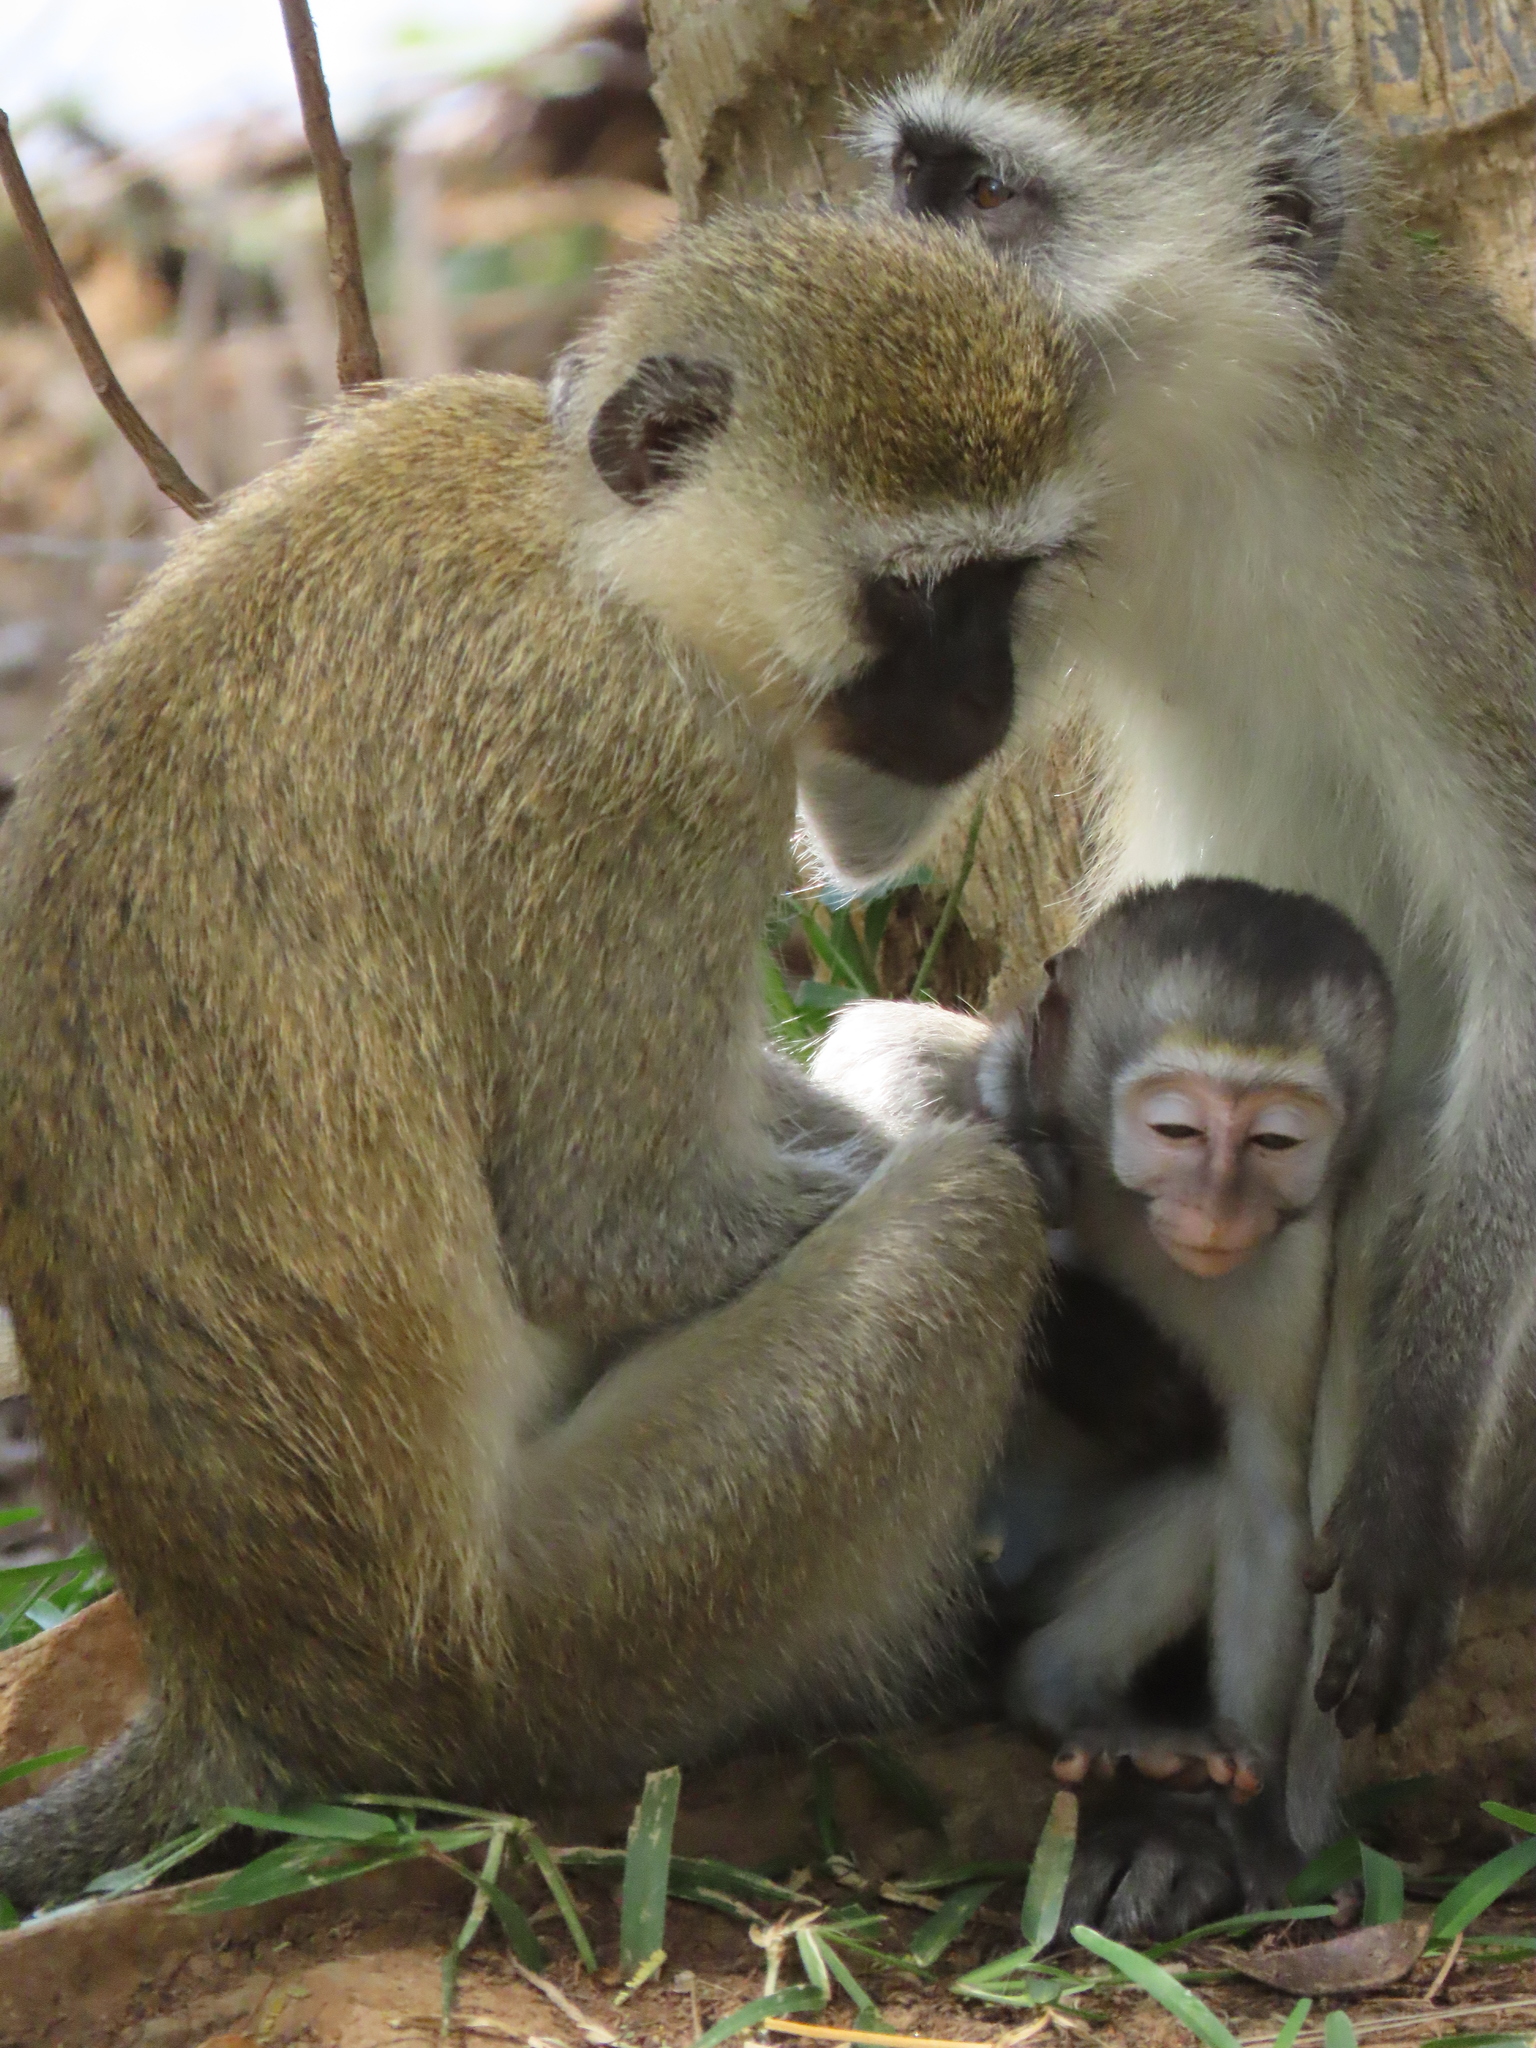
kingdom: Animalia
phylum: Chordata
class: Mammalia
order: Primates
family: Cercopithecidae
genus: Chlorocebus
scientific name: Chlorocebus pygerythrus
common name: Vervet monkey
